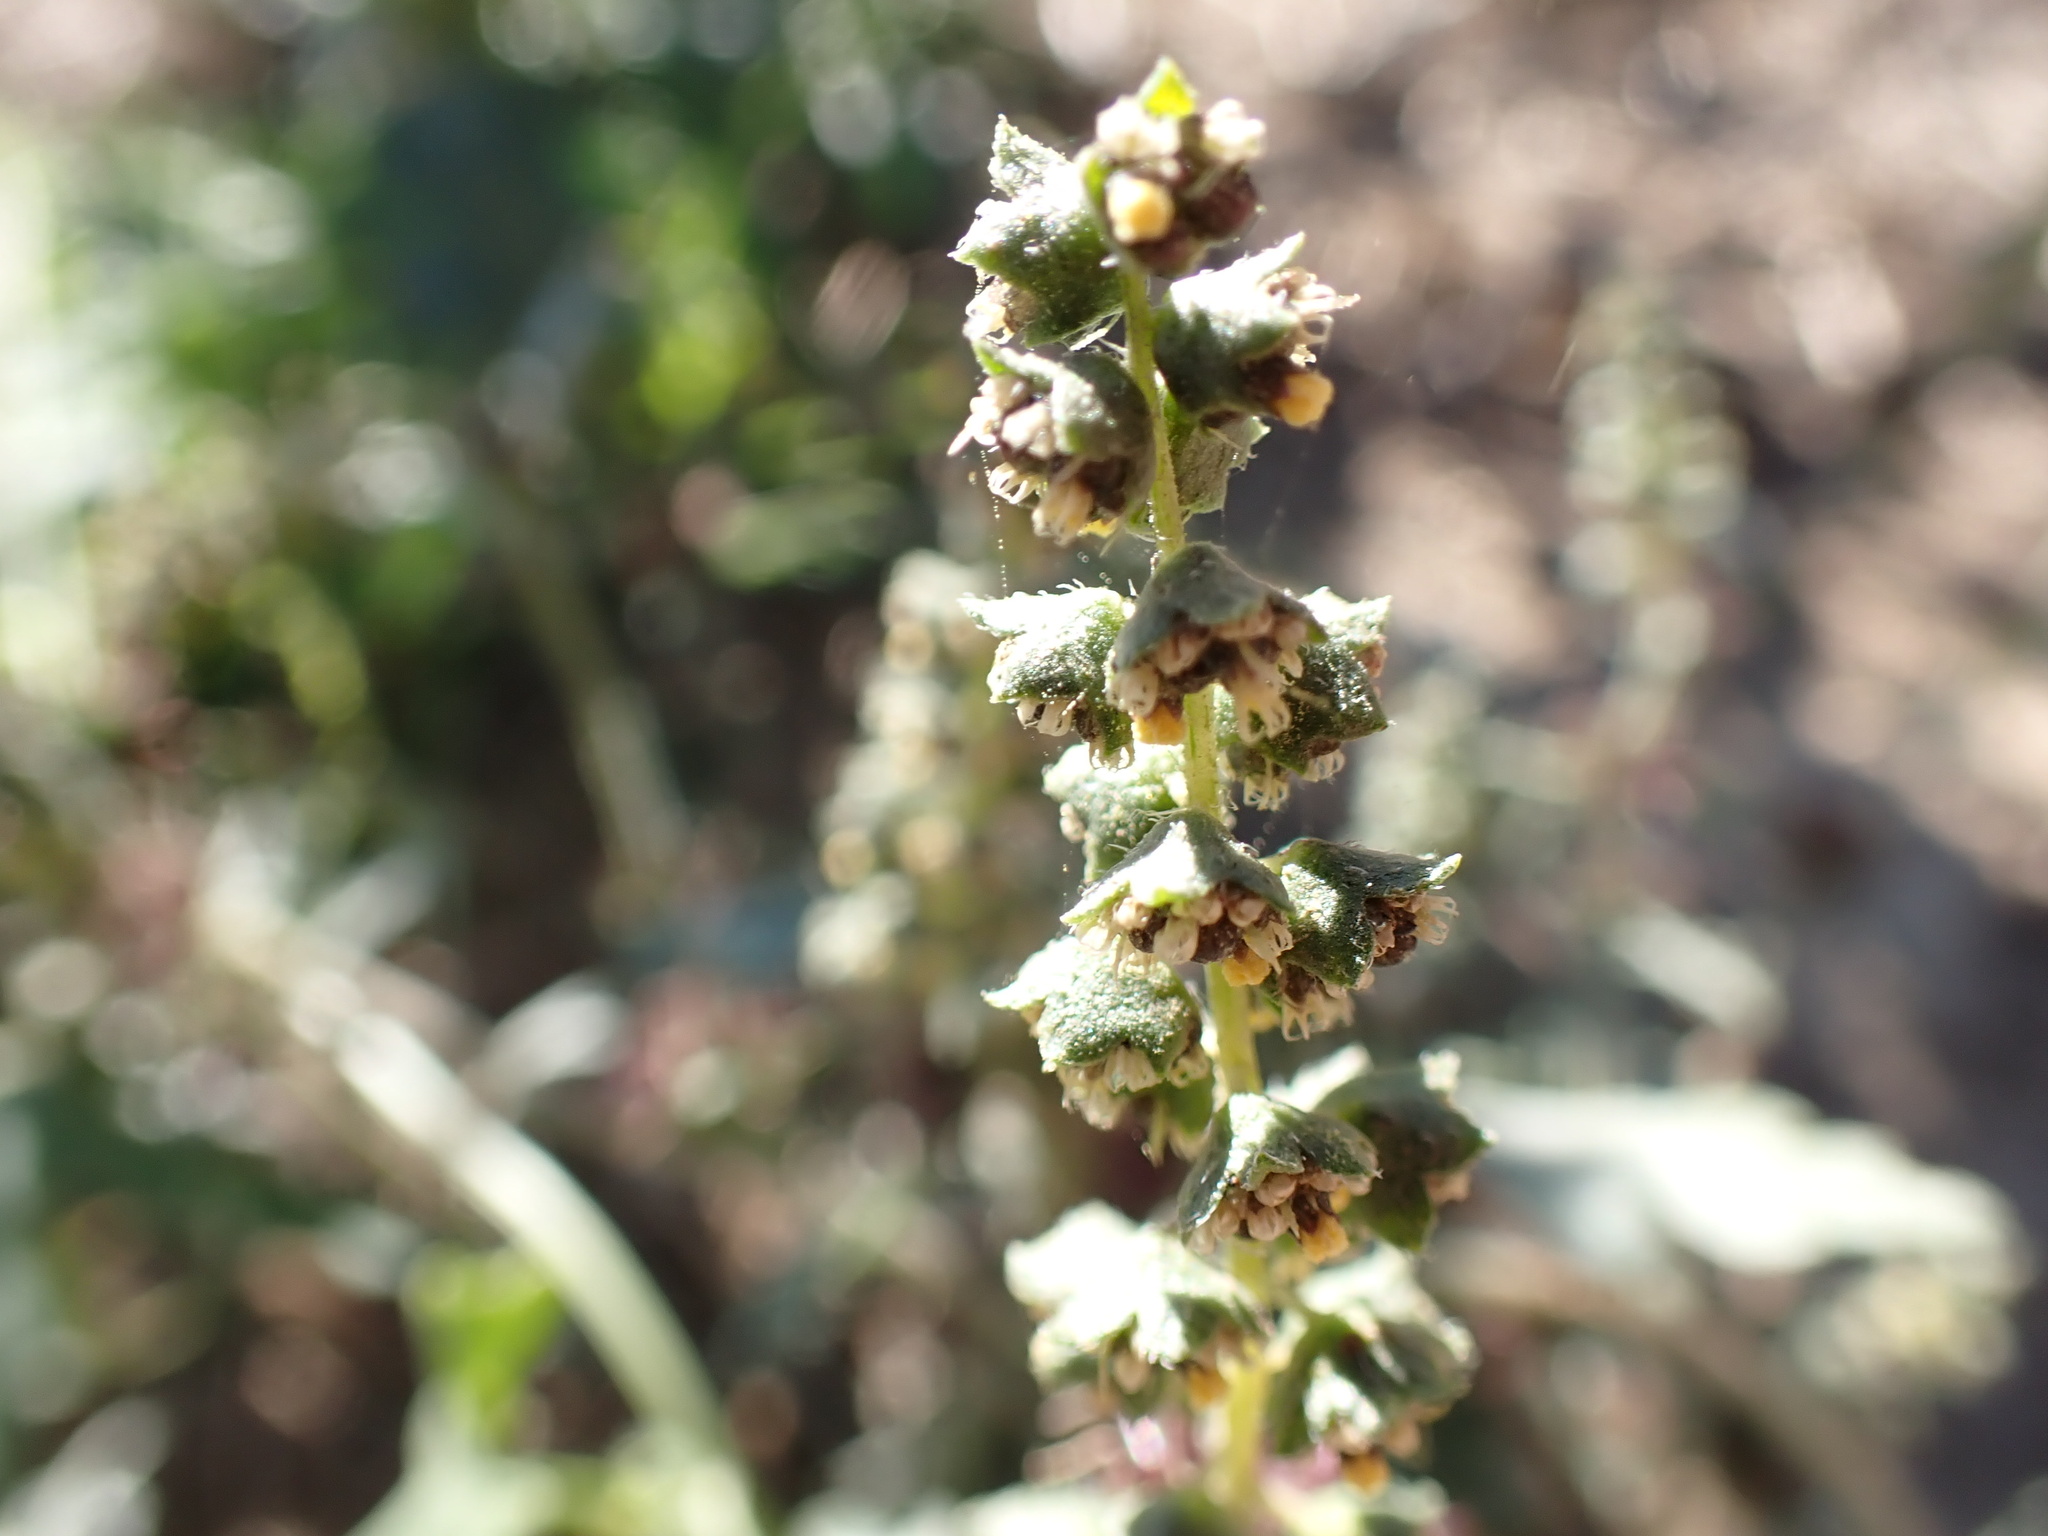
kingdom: Plantae
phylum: Tracheophyta
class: Magnoliopsida
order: Asterales
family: Asteraceae
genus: Ambrosia
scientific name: Ambrosia acanthicarpa
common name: Hooker's bur ragweed
